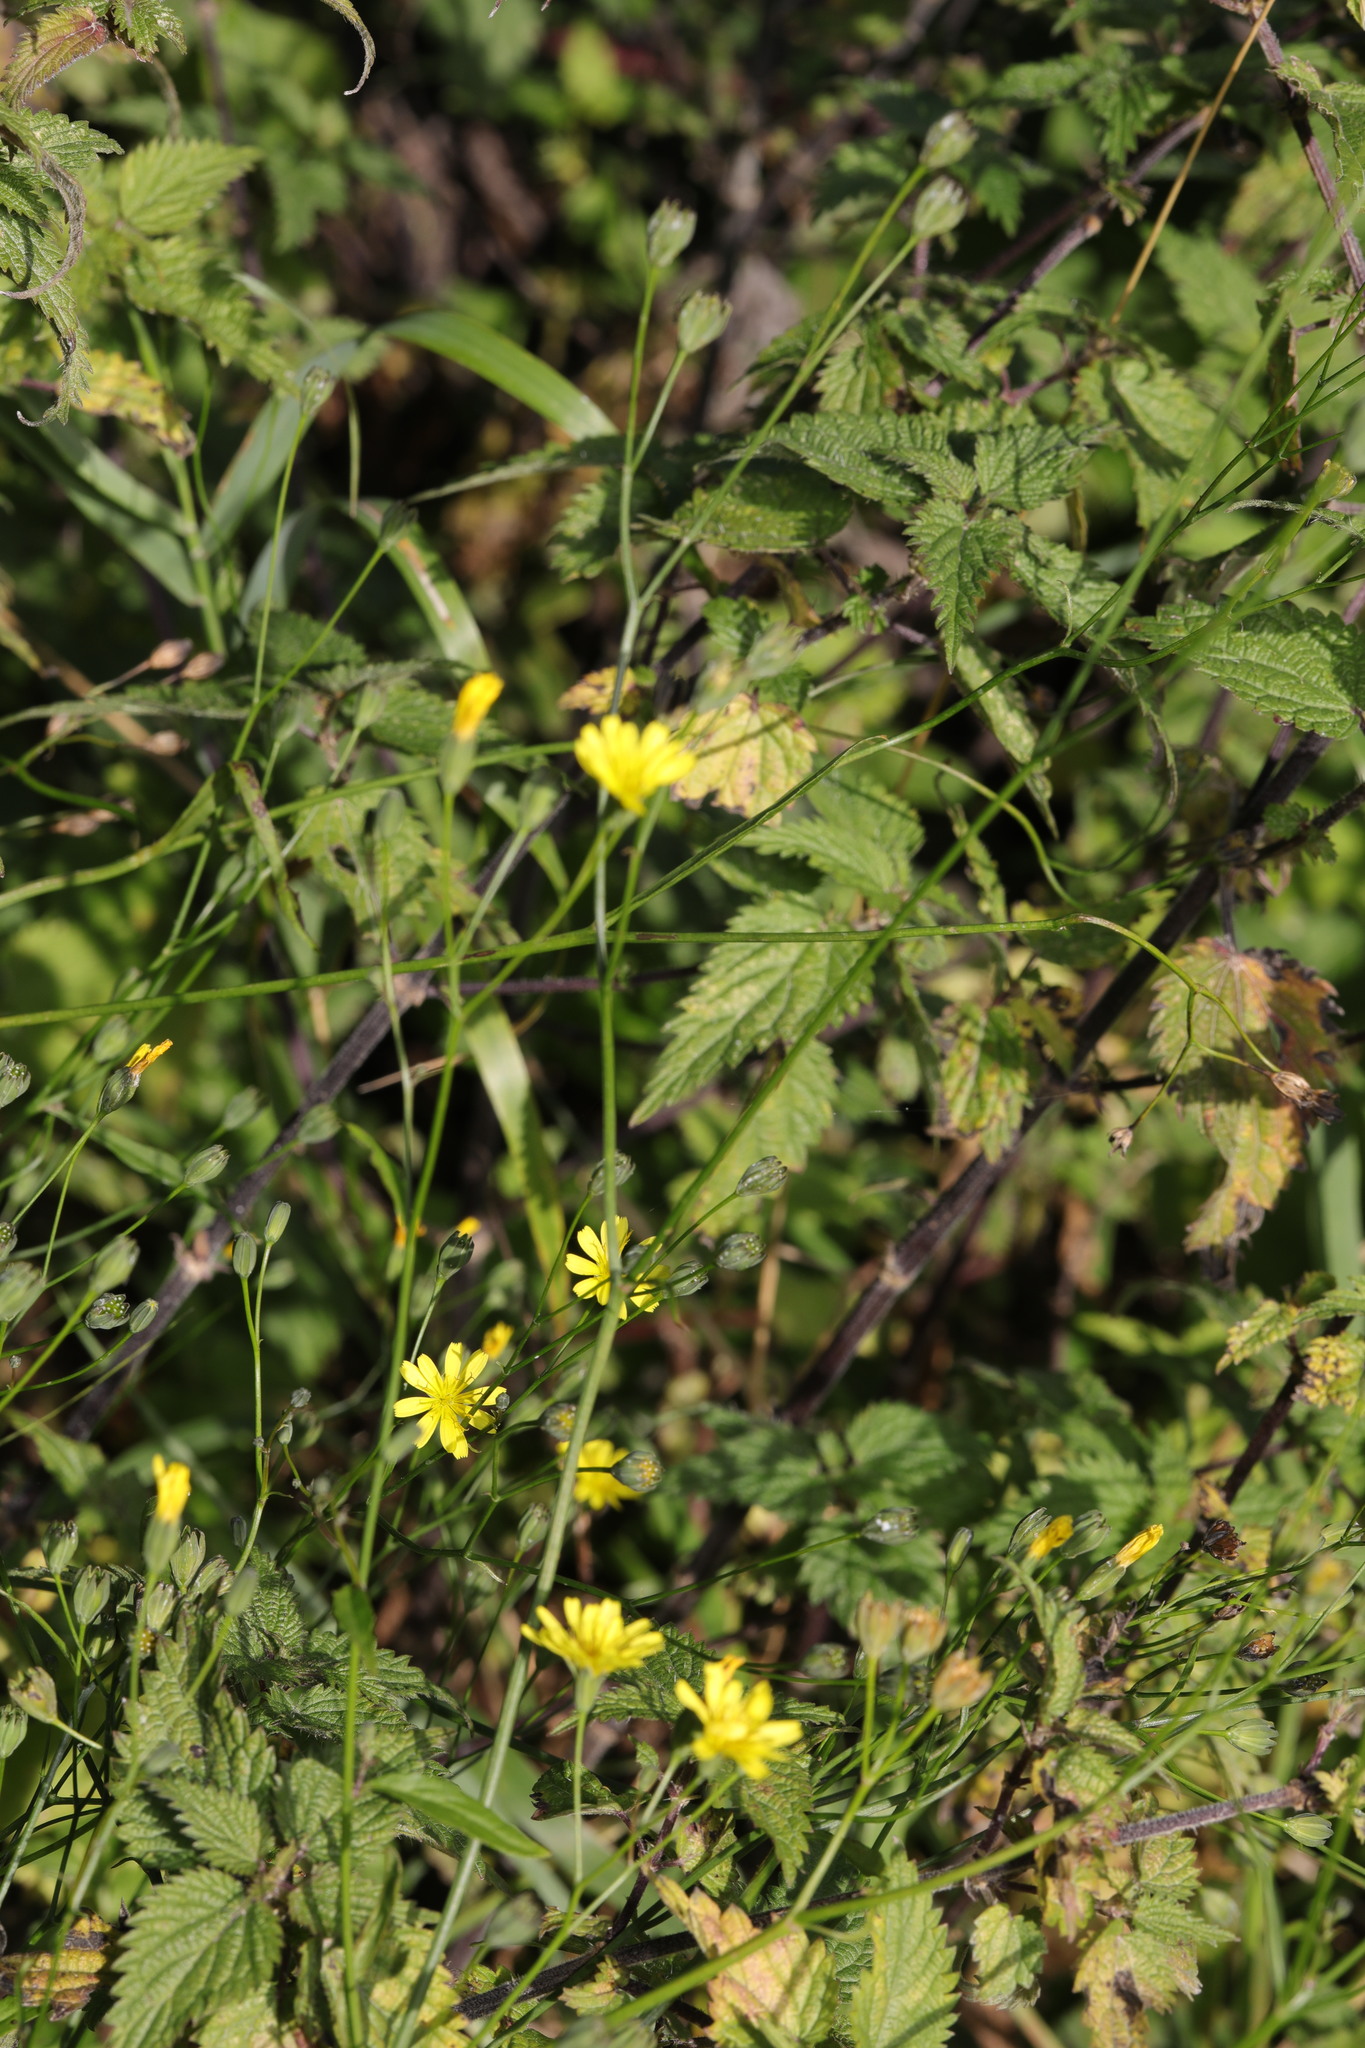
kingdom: Plantae
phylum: Tracheophyta
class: Magnoliopsida
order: Asterales
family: Asteraceae
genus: Lapsana
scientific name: Lapsana communis
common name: Nipplewort
